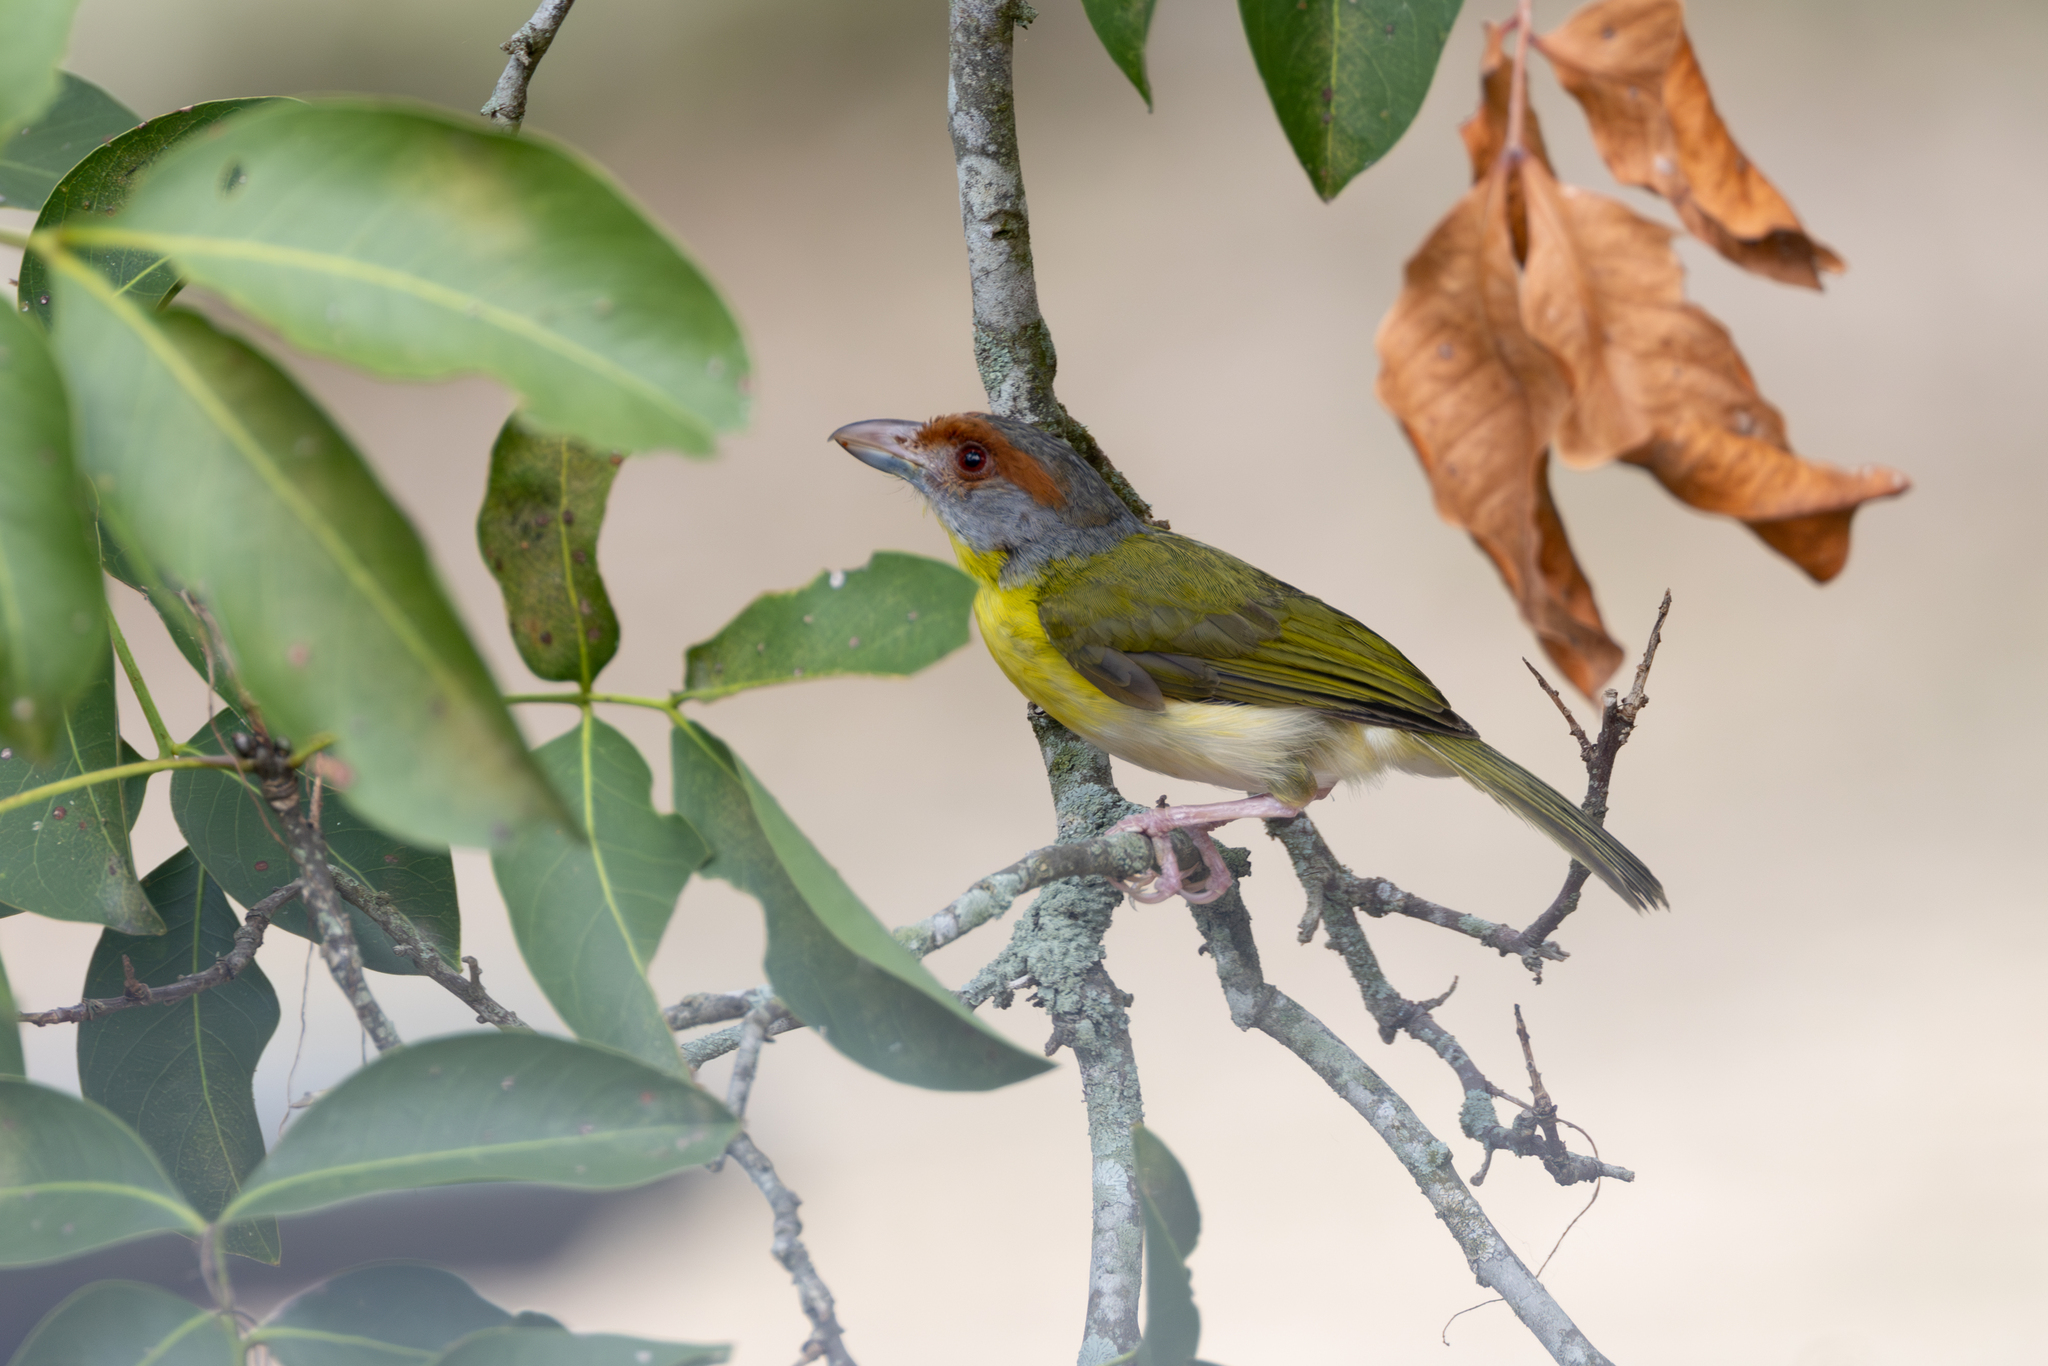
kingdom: Animalia
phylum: Chordata
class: Aves
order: Passeriformes
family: Vireonidae
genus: Cyclarhis
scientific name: Cyclarhis gujanensis
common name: Rufous-browed peppershrike
